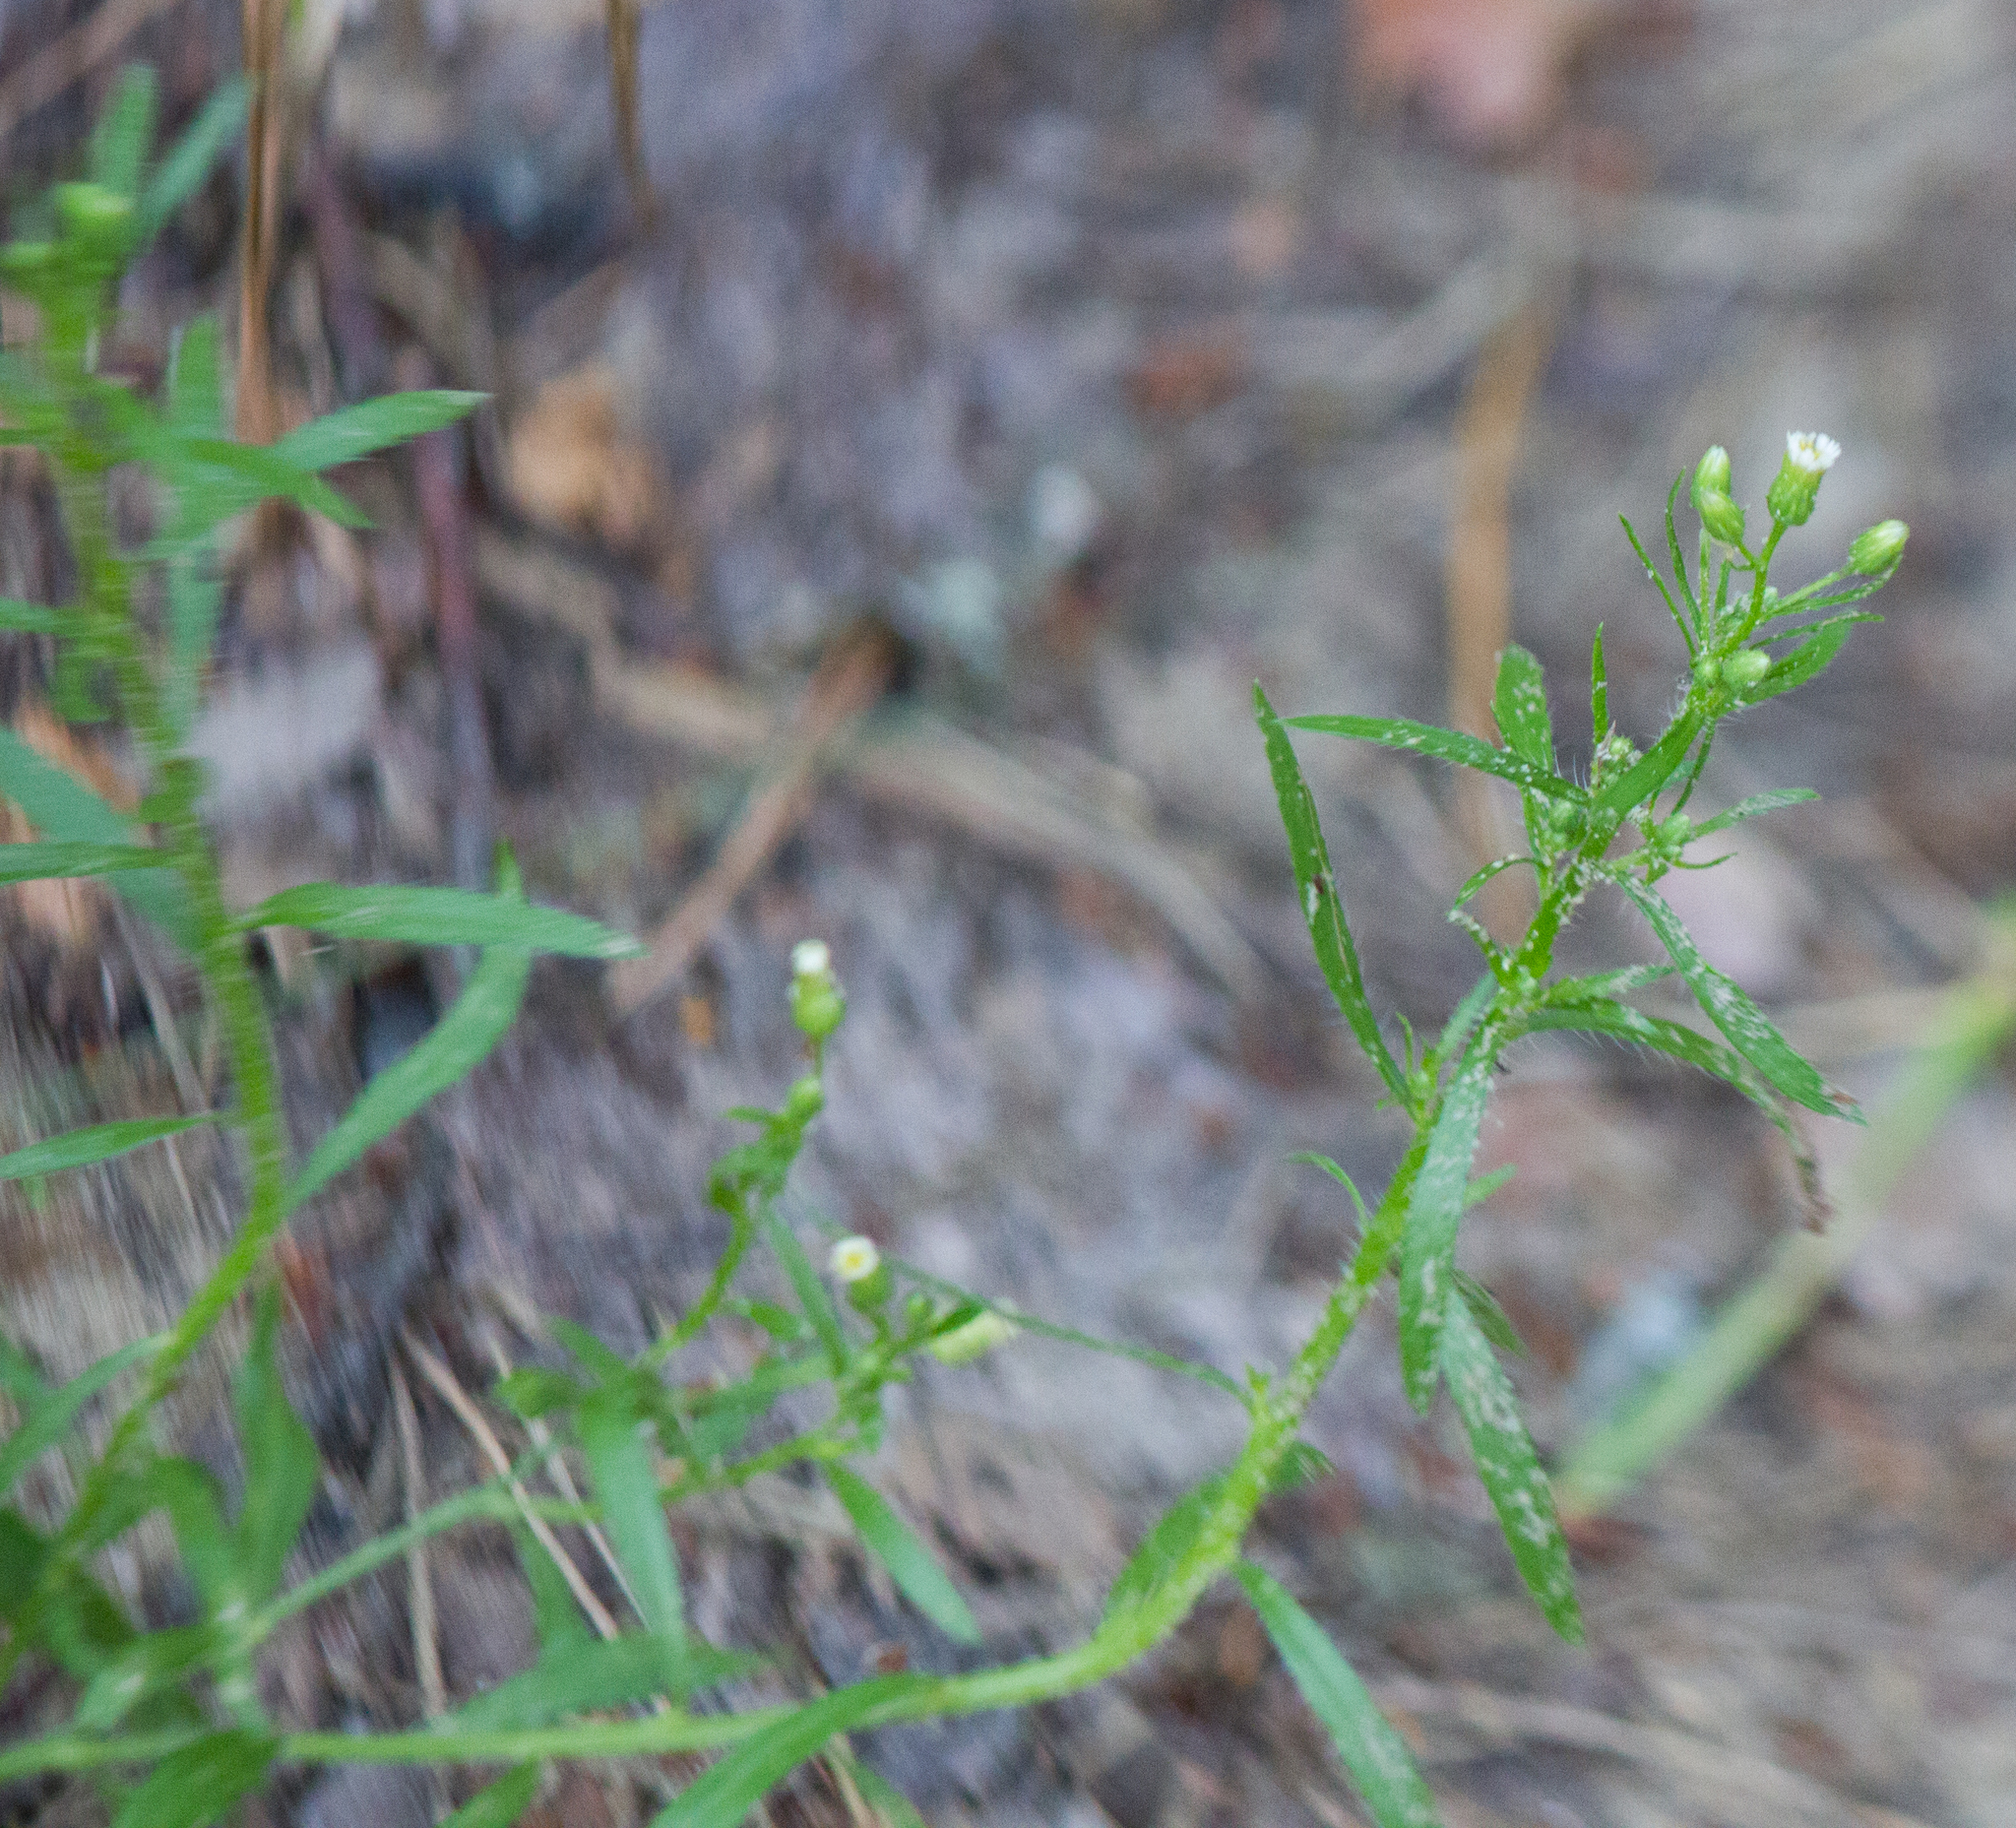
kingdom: Plantae
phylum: Tracheophyta
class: Magnoliopsida
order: Asterales
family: Asteraceae
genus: Erigeron
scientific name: Erigeron canadensis
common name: Canadian fleabane
